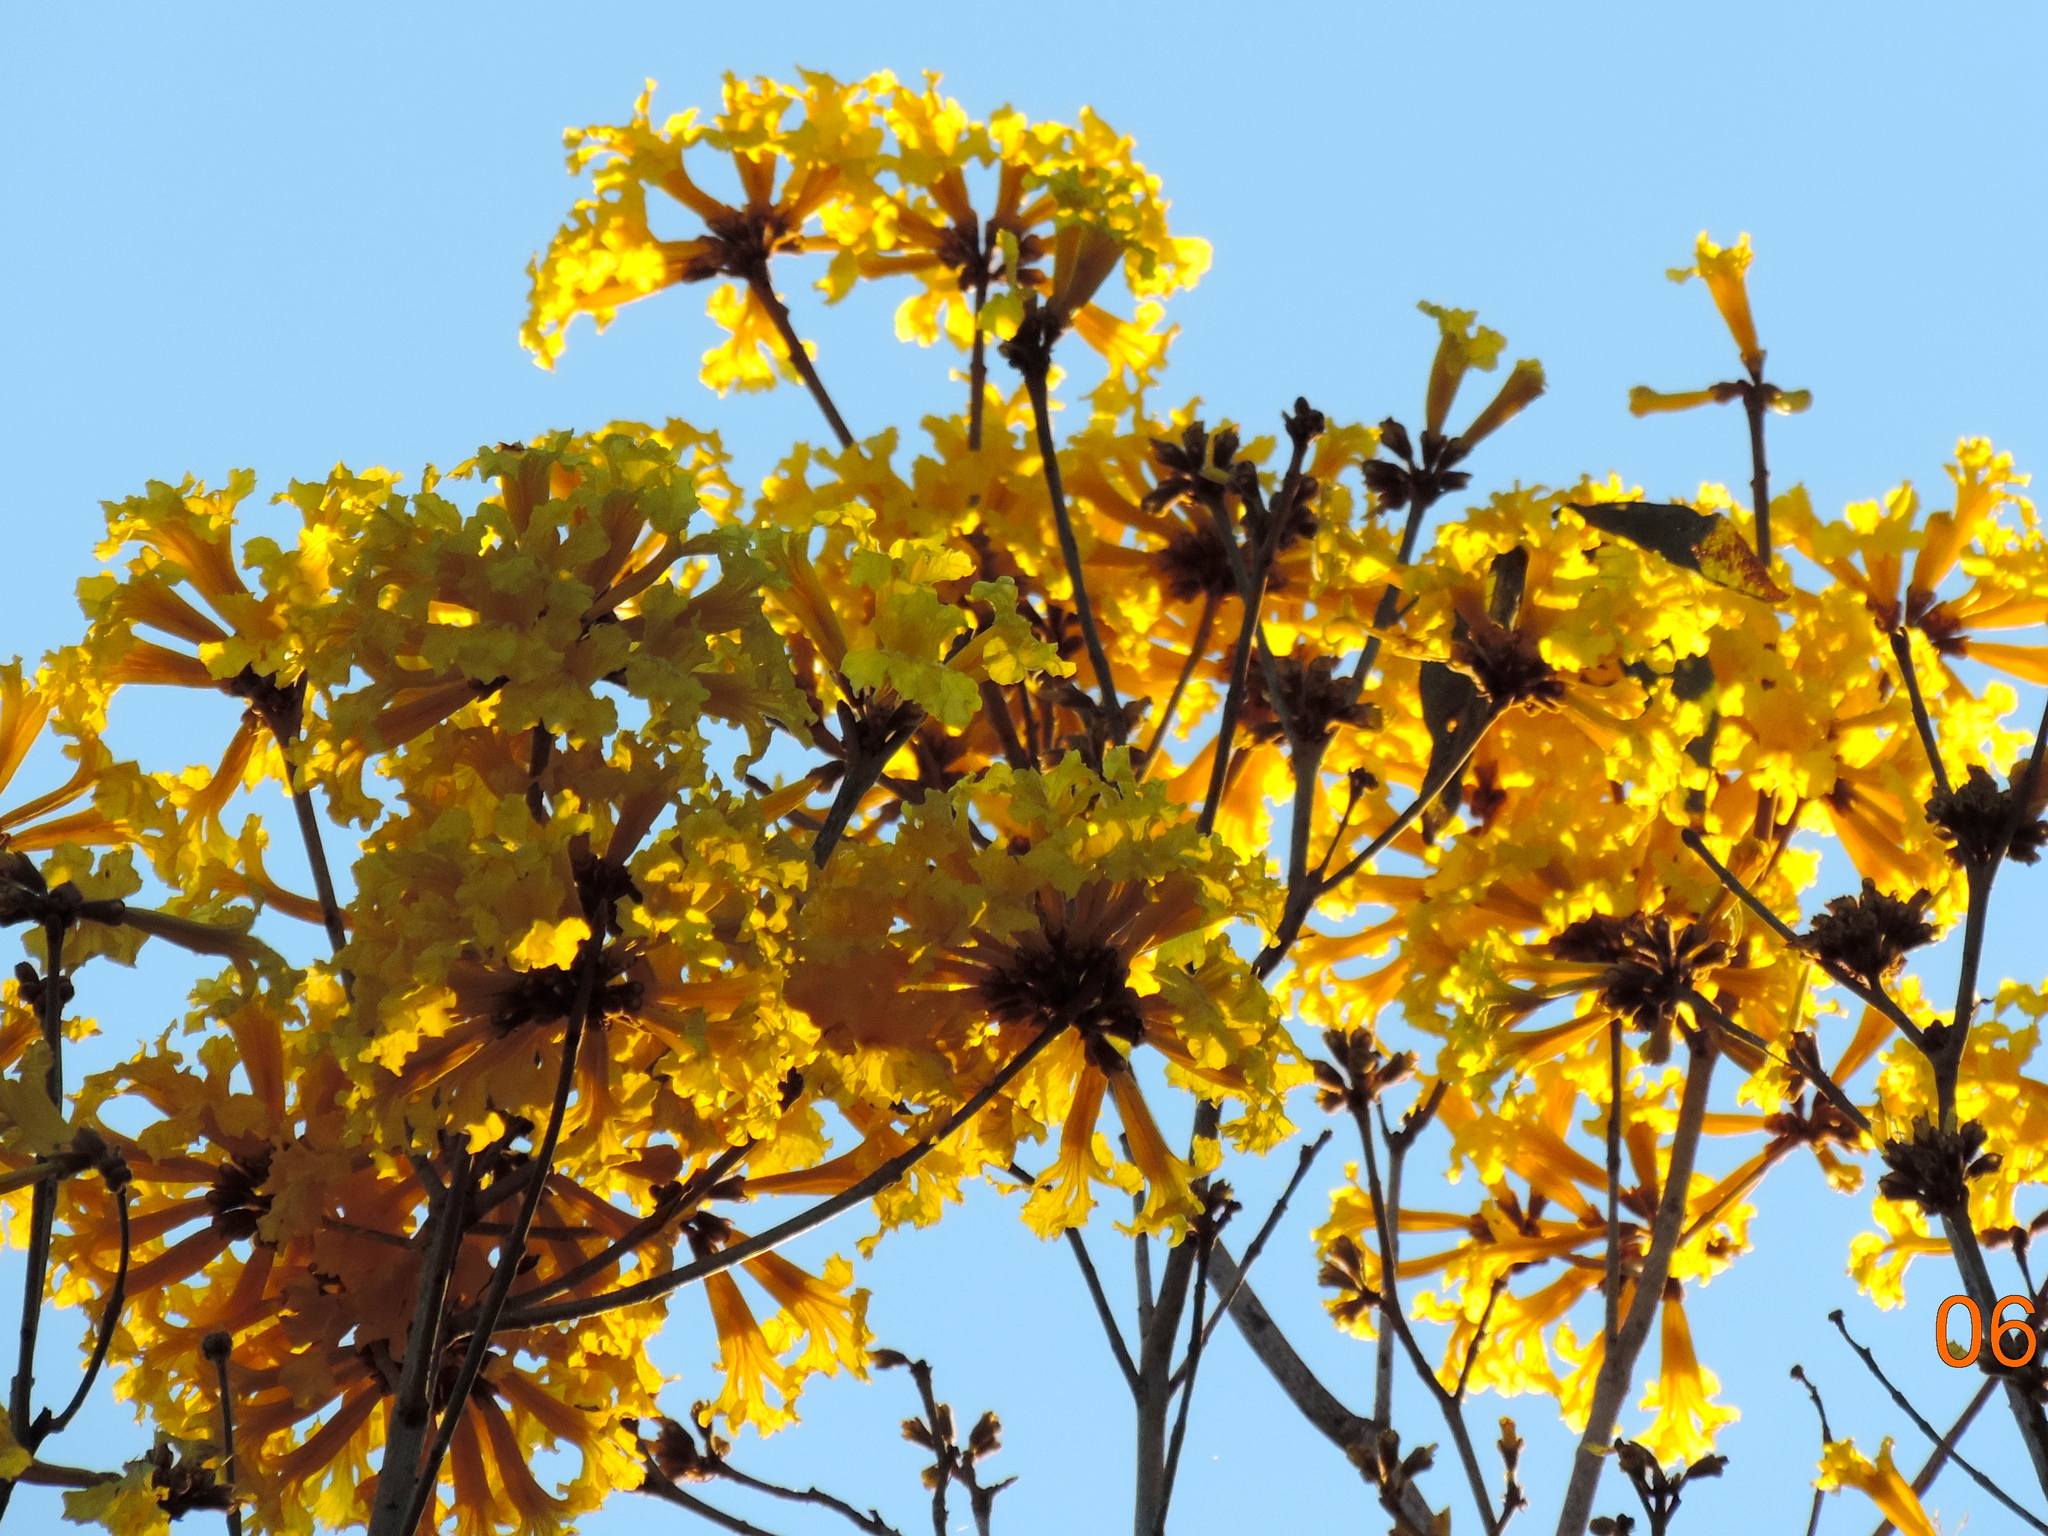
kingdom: Plantae
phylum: Tracheophyta
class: Magnoliopsida
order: Lamiales
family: Bignoniaceae
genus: Handroanthus
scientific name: Handroanthus chrysanthus
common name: Trumpet trees
